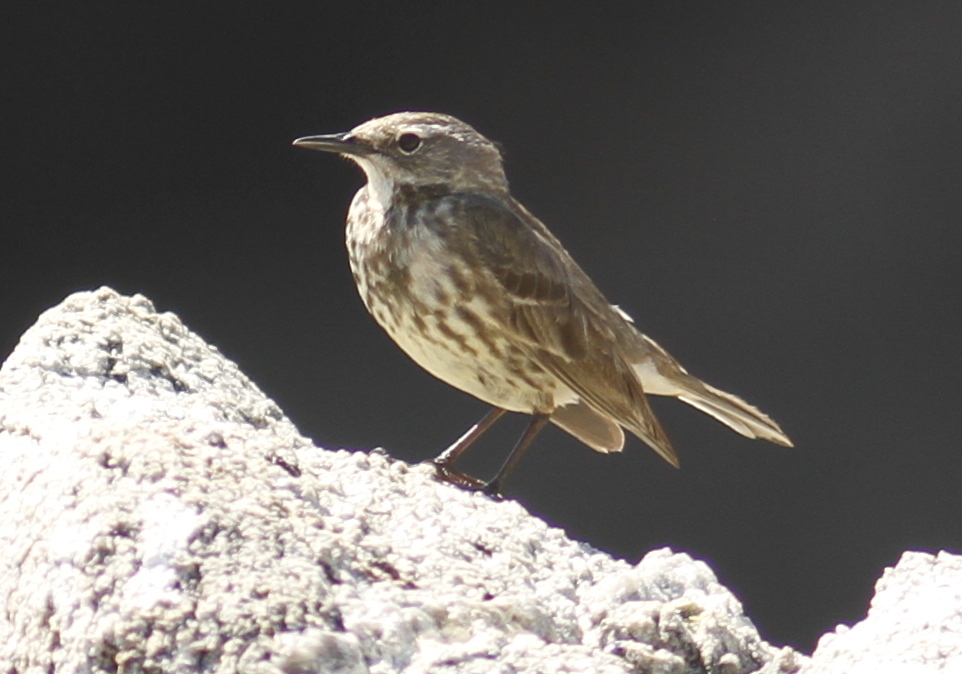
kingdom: Animalia
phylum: Chordata
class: Aves
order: Passeriformes
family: Motacillidae
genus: Anthus
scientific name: Anthus petrosus
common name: Eurasian rock pipit
